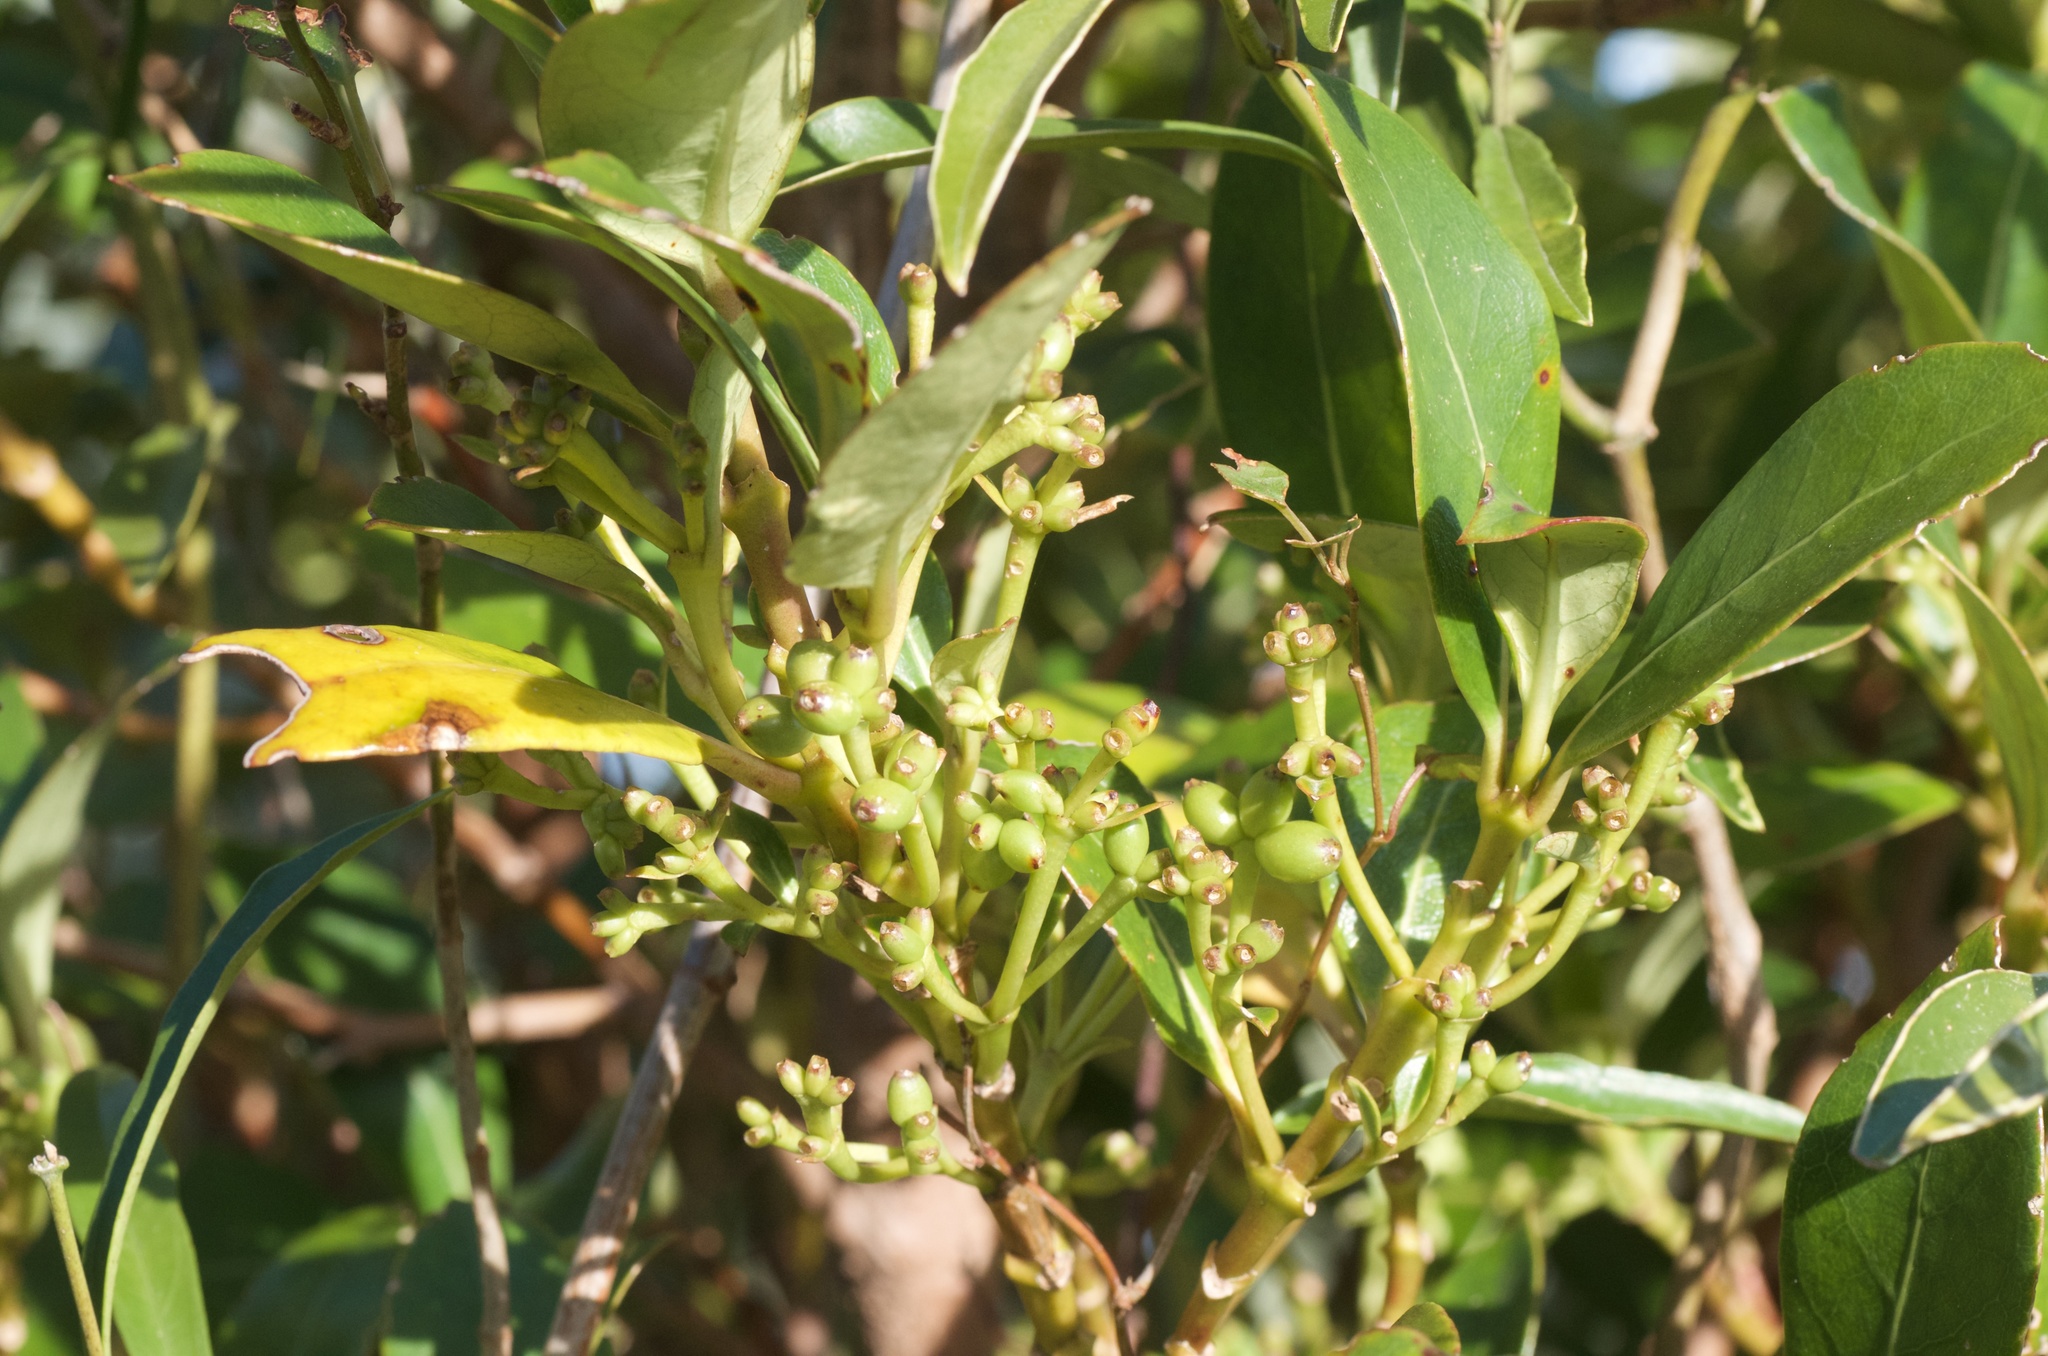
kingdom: Plantae
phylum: Tracheophyta
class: Magnoliopsida
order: Gentianales
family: Rubiaceae
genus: Coprosma
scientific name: Coprosma lucida
